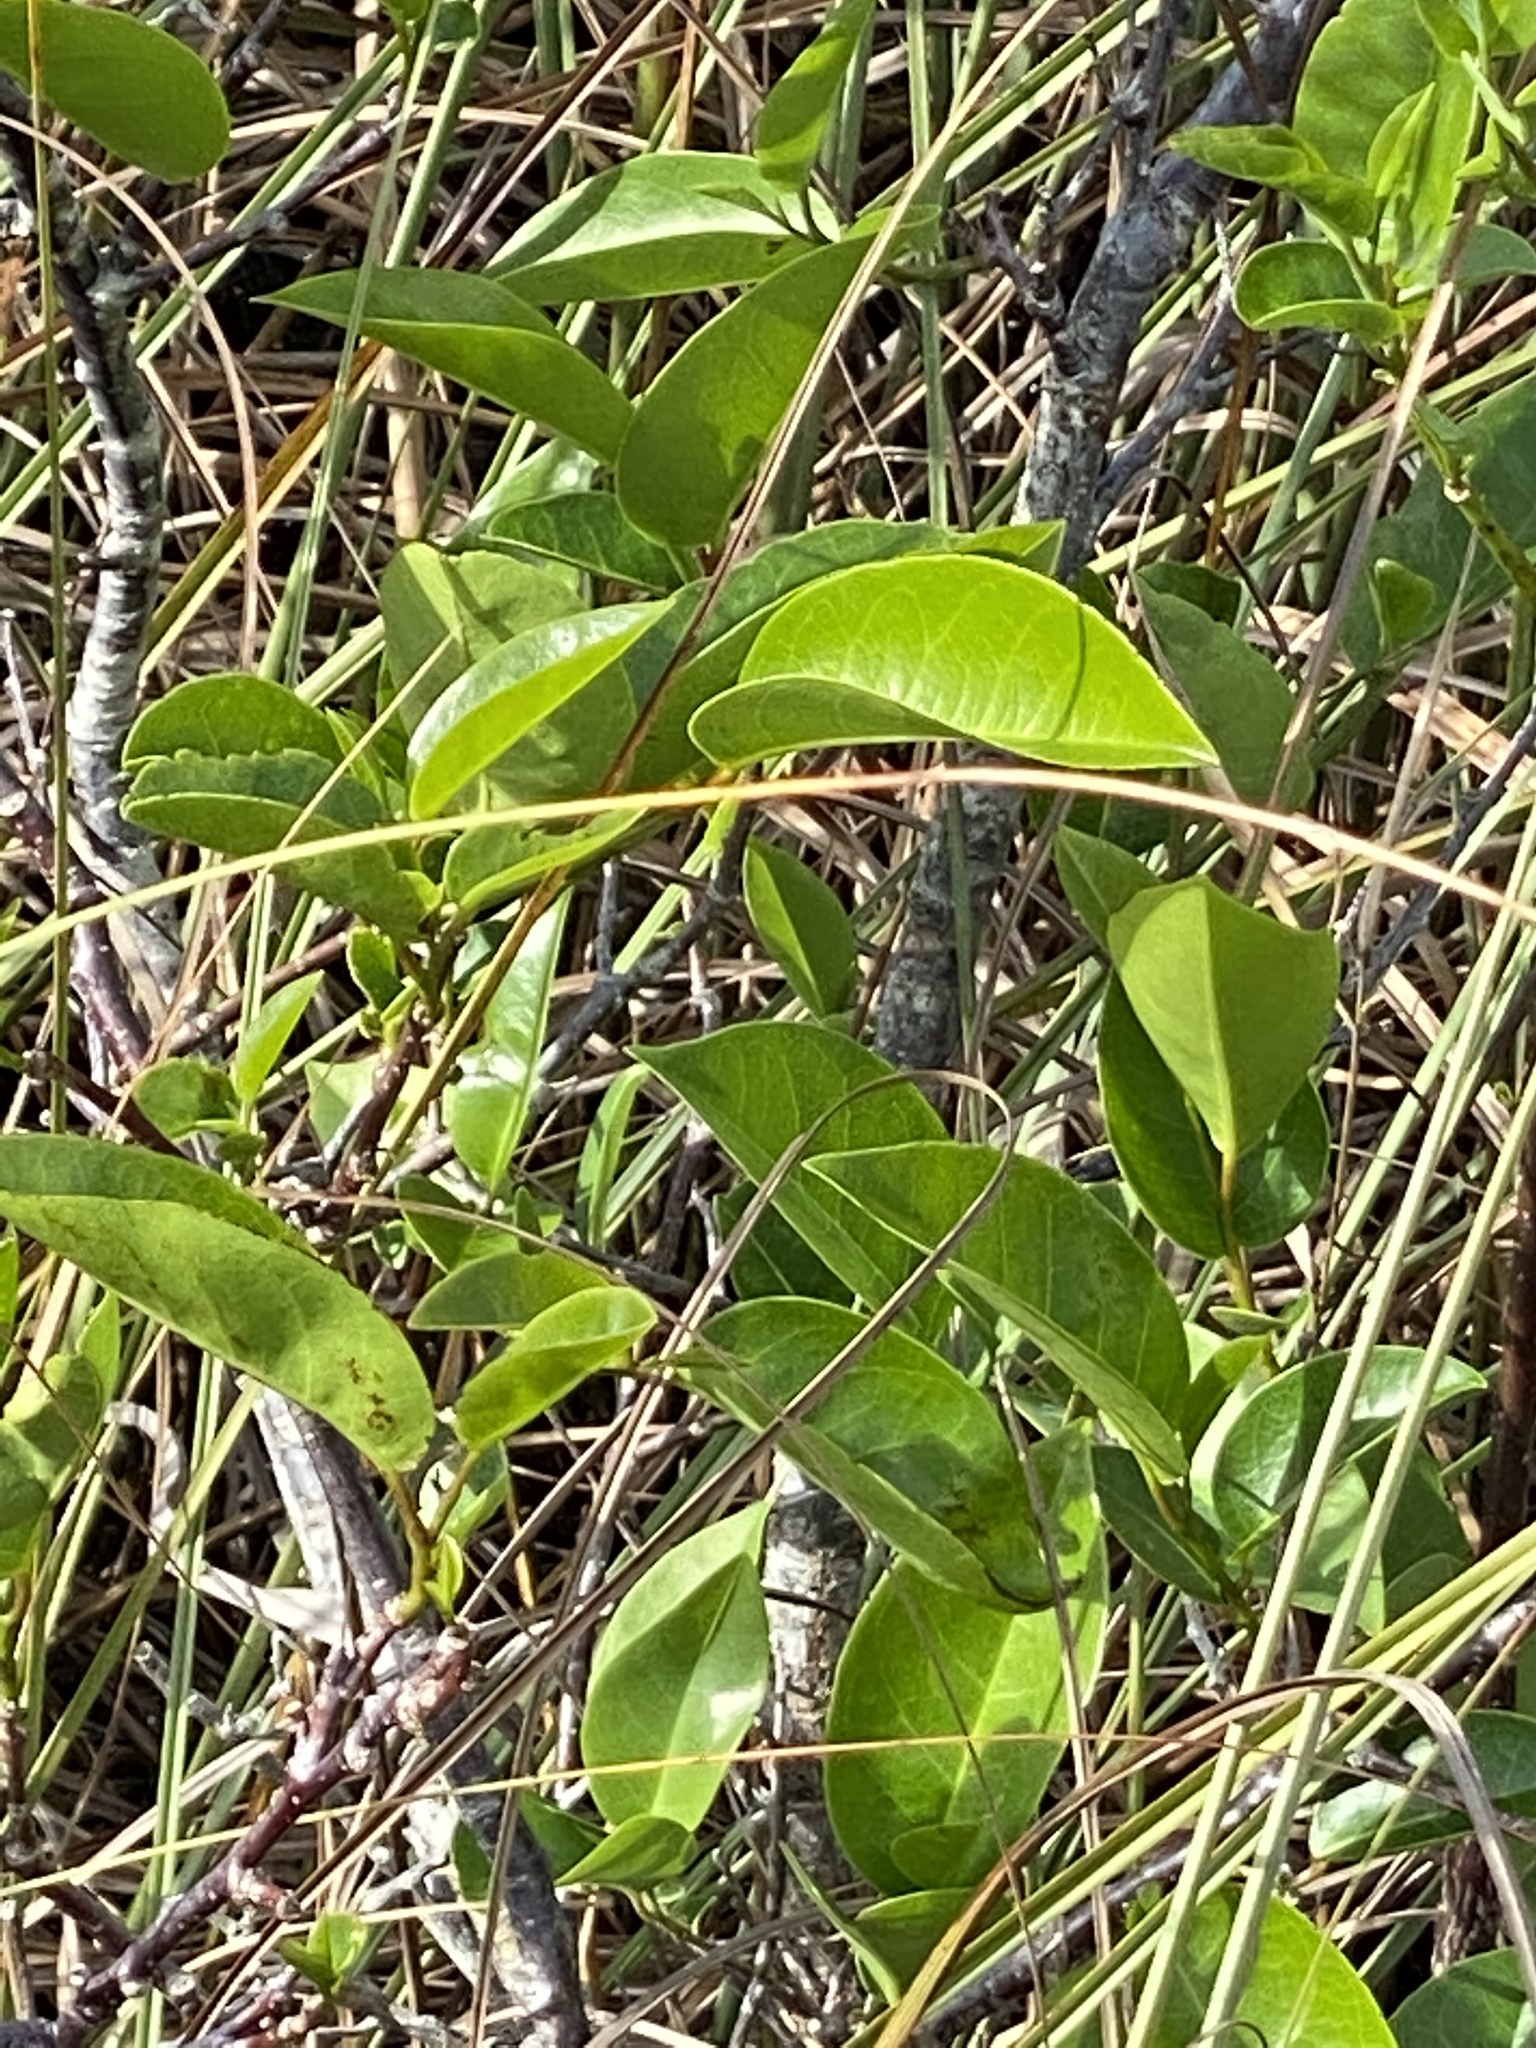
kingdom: Plantae
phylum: Tracheophyta
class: Magnoliopsida
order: Magnoliales
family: Annonaceae
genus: Annona
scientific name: Annona glabra
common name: Monkey apple
